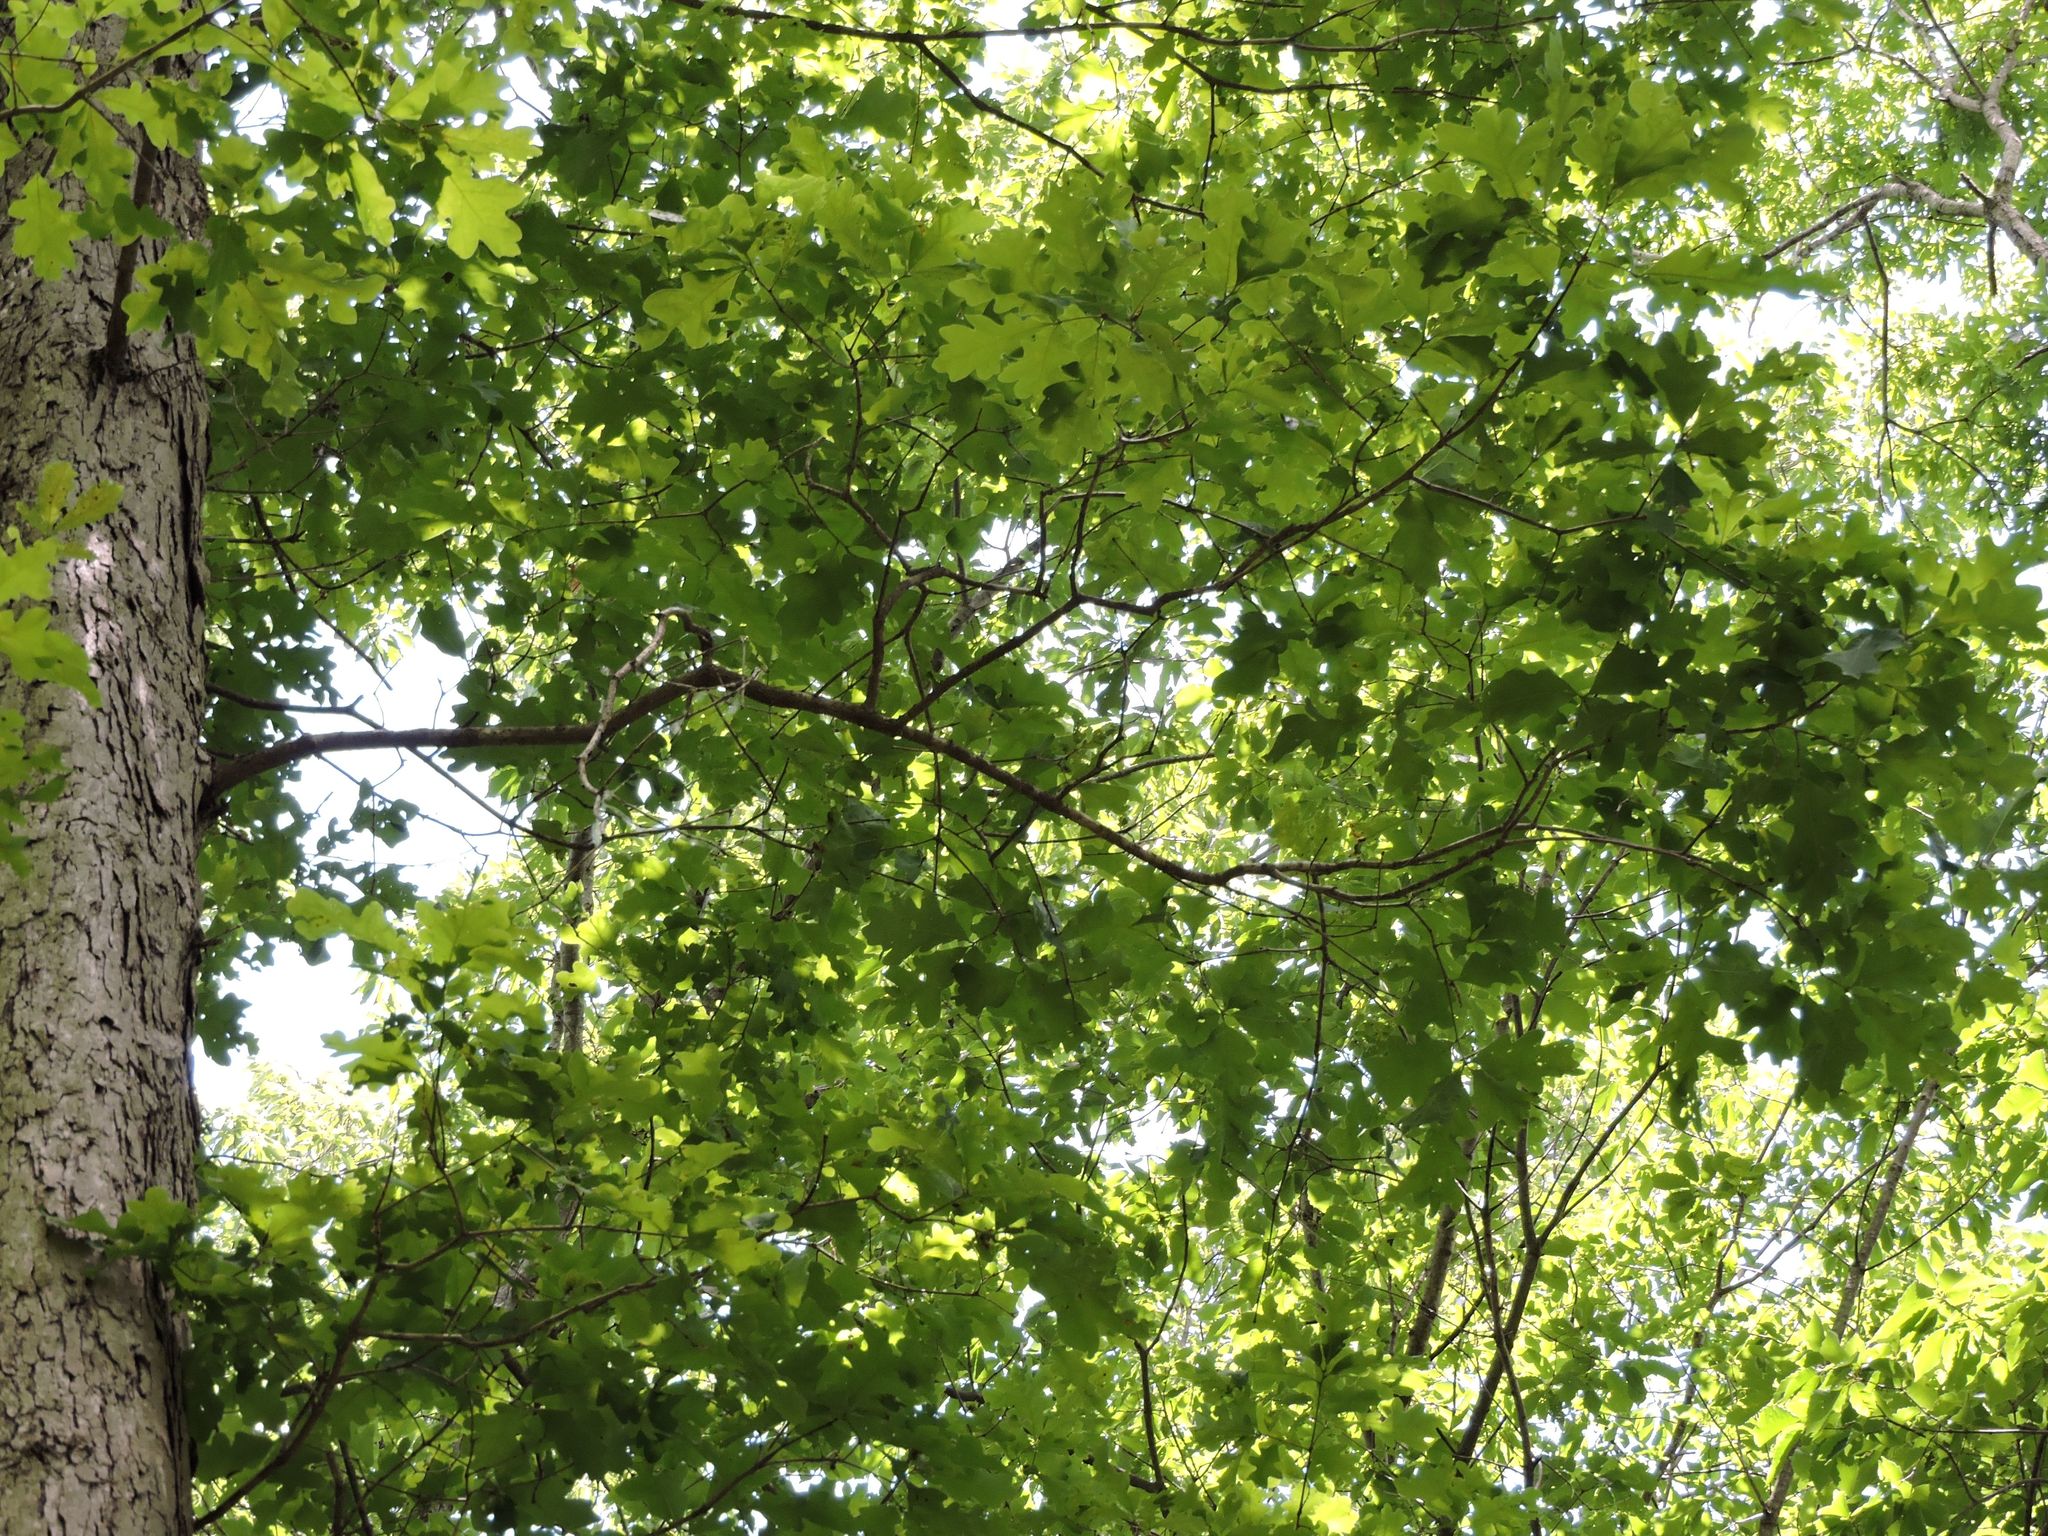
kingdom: Plantae
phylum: Tracheophyta
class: Magnoliopsida
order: Fagales
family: Fagaceae
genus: Quercus
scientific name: Quercus alba
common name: White oak
